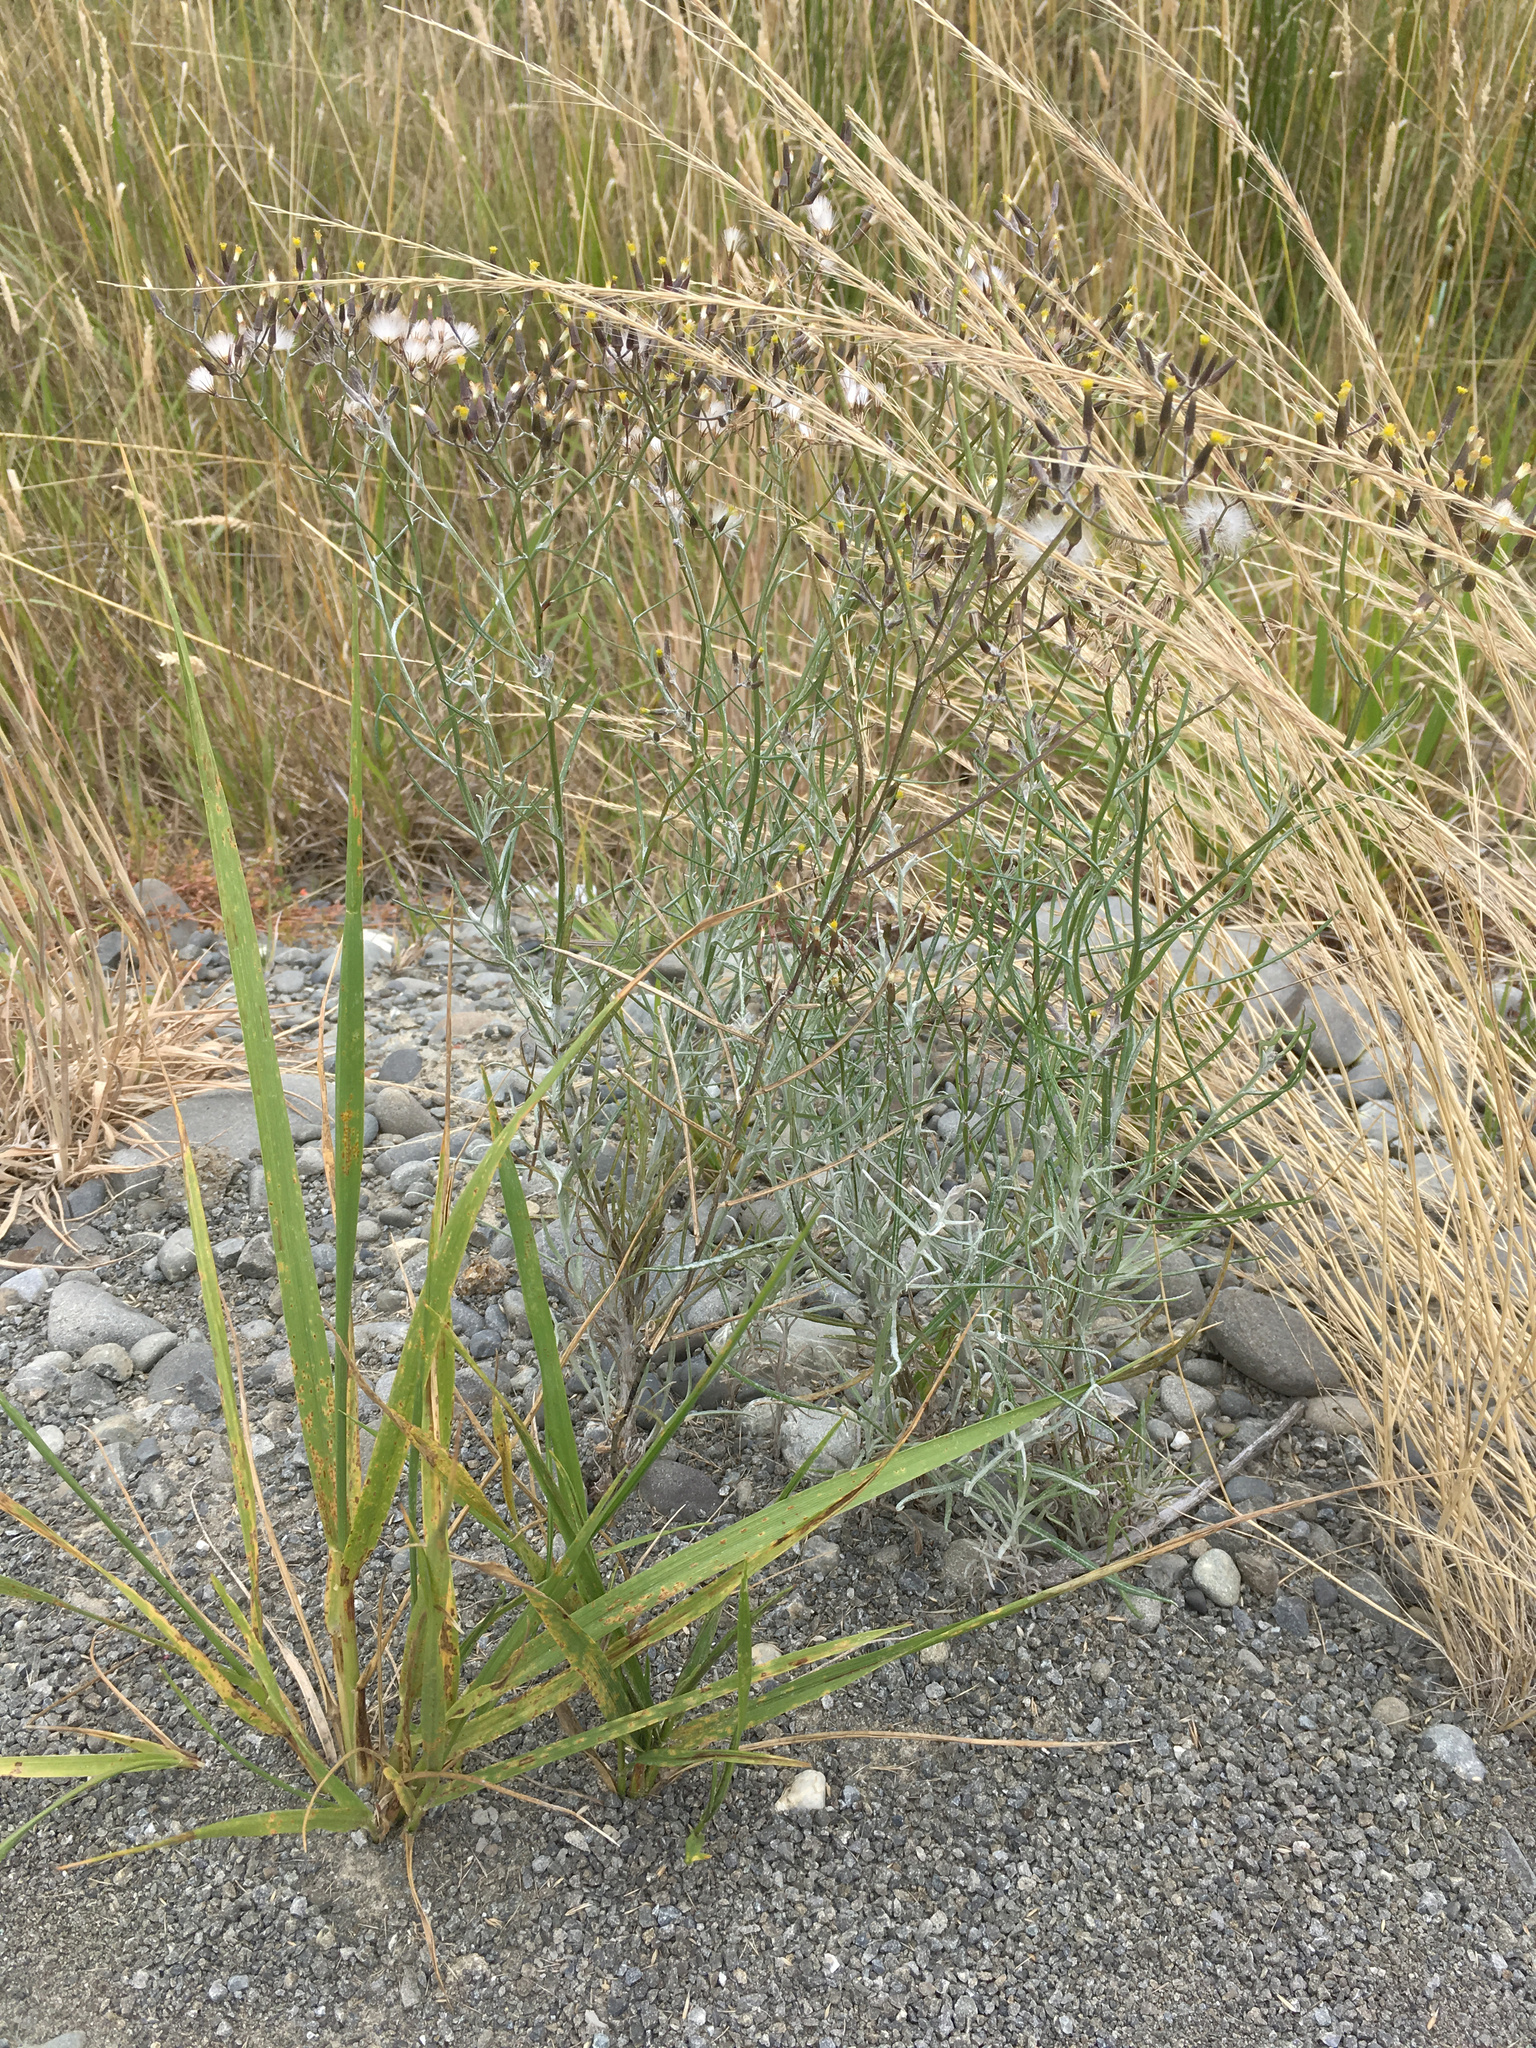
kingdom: Plantae
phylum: Tracheophyta
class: Magnoliopsida
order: Asterales
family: Asteraceae
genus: Senecio
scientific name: Senecio quadridentatus
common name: Cotton fireweed
